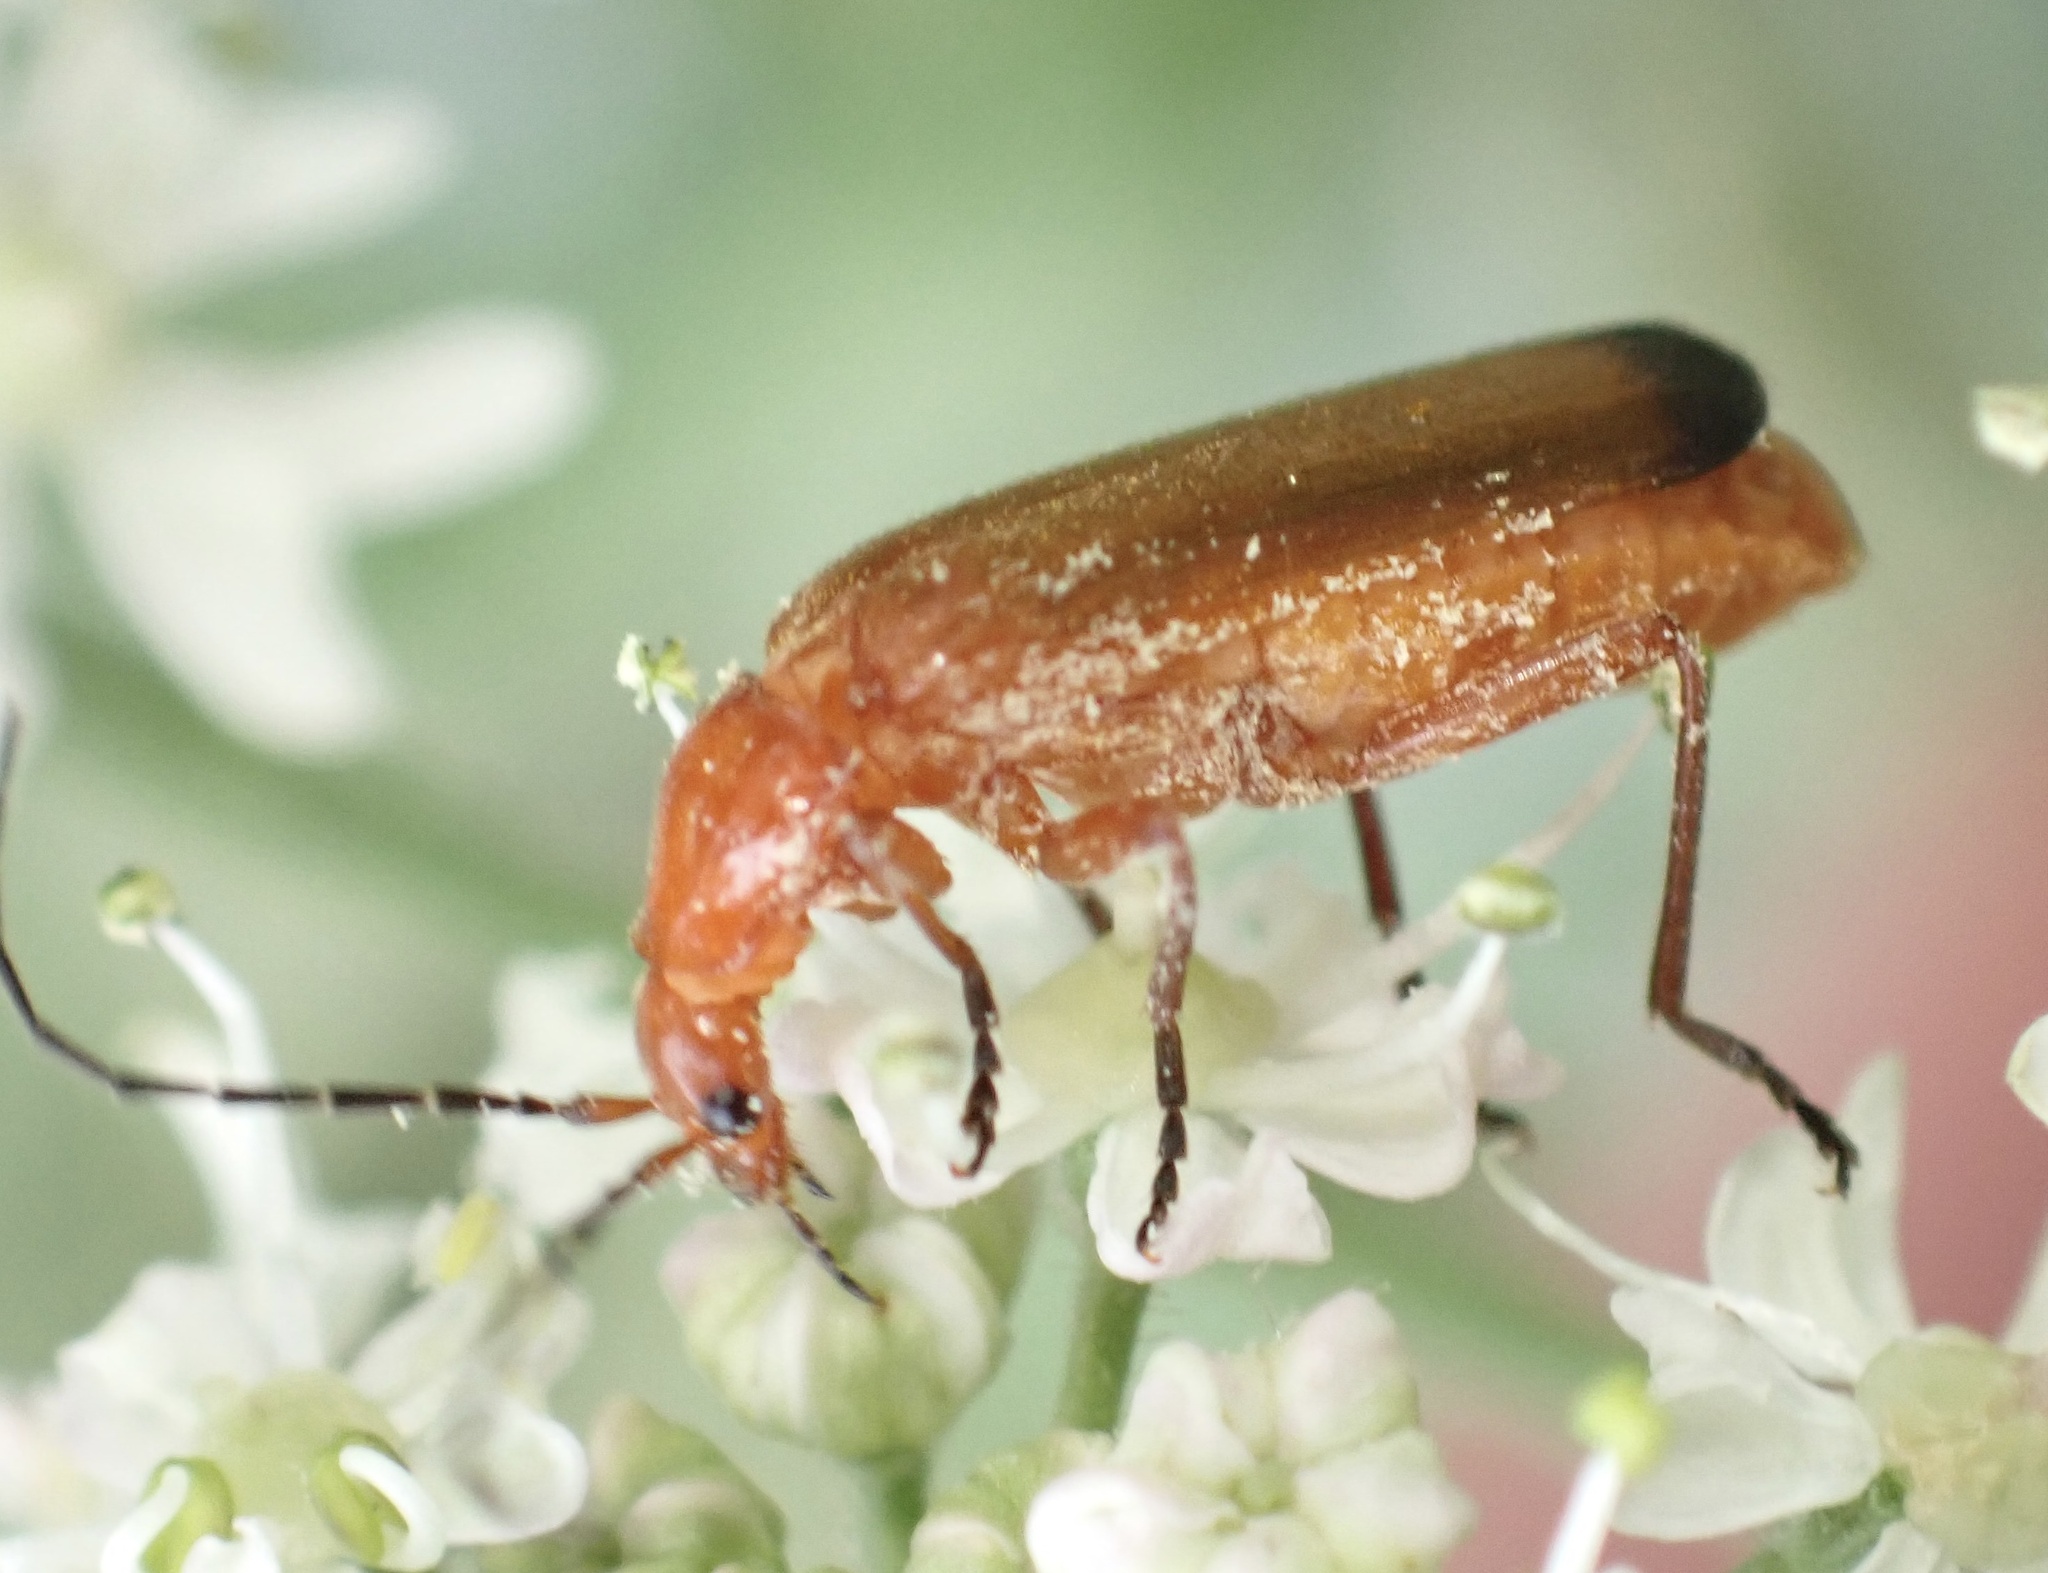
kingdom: Animalia
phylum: Arthropoda
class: Insecta
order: Coleoptera
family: Cantharidae
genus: Rhagonycha
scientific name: Rhagonycha fulva
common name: Common red soldier beetle
